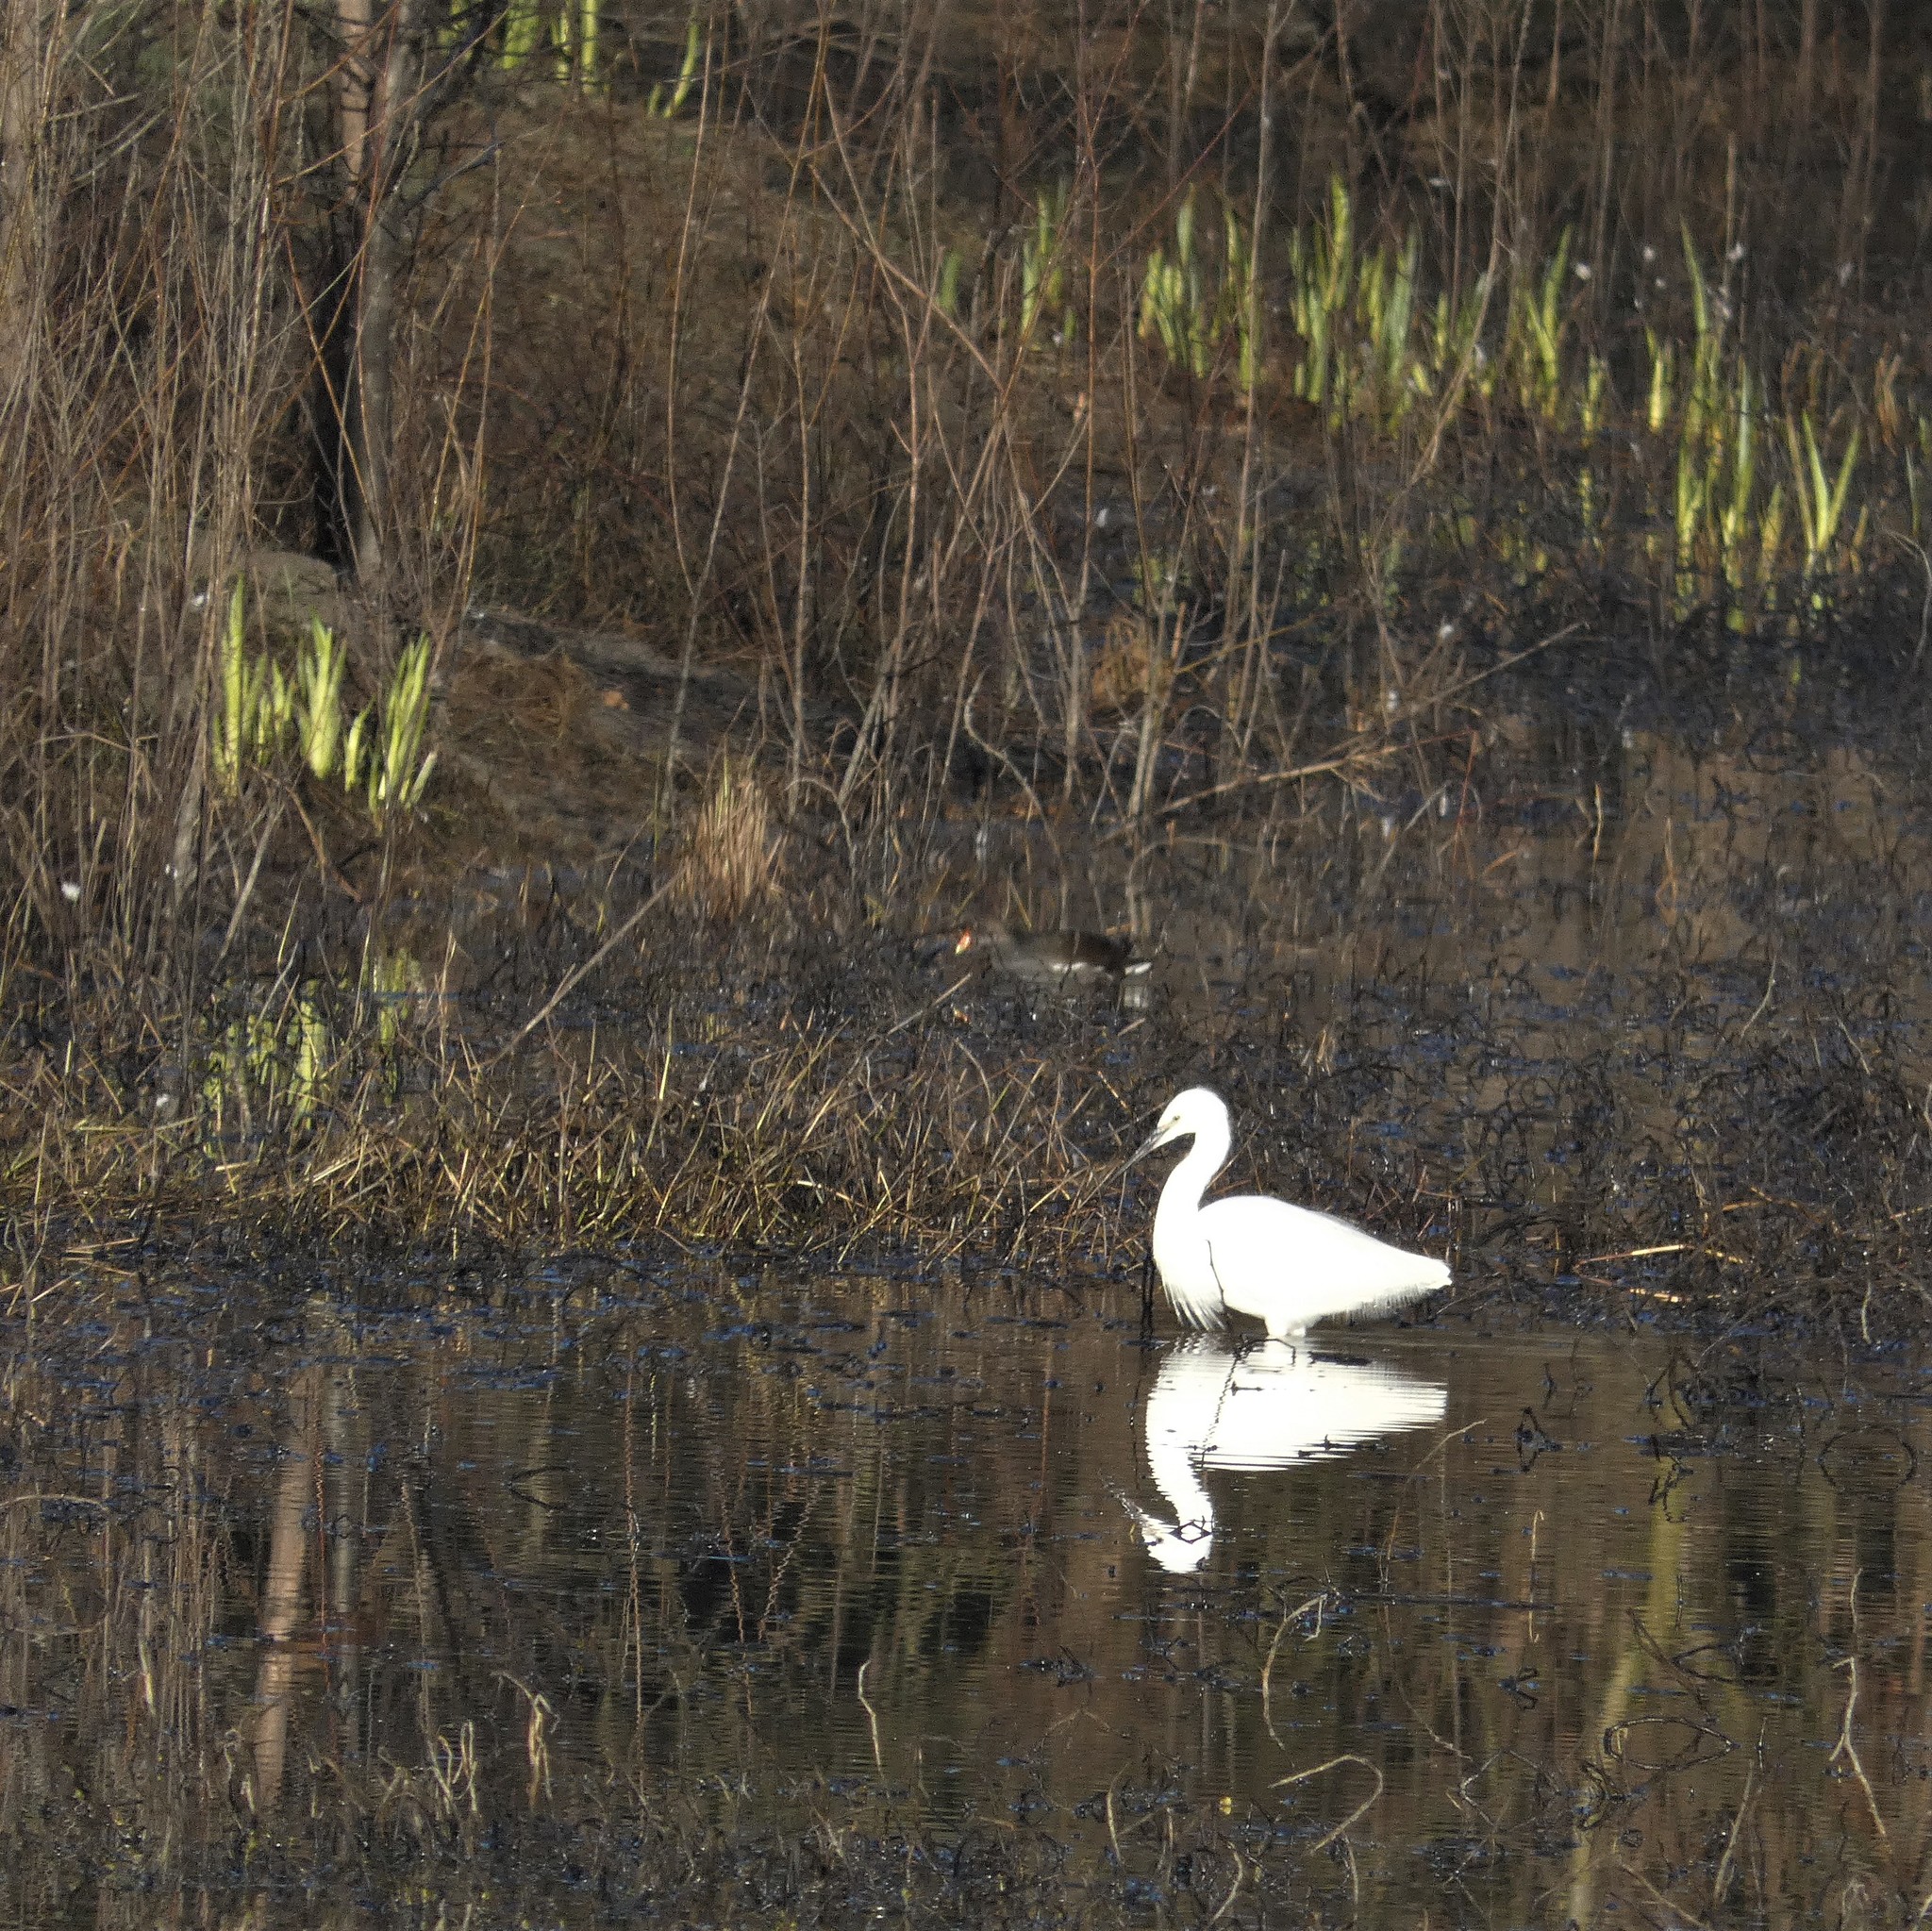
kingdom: Animalia
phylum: Chordata
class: Aves
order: Pelecaniformes
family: Ardeidae
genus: Egretta
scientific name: Egretta garzetta
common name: Little egret
